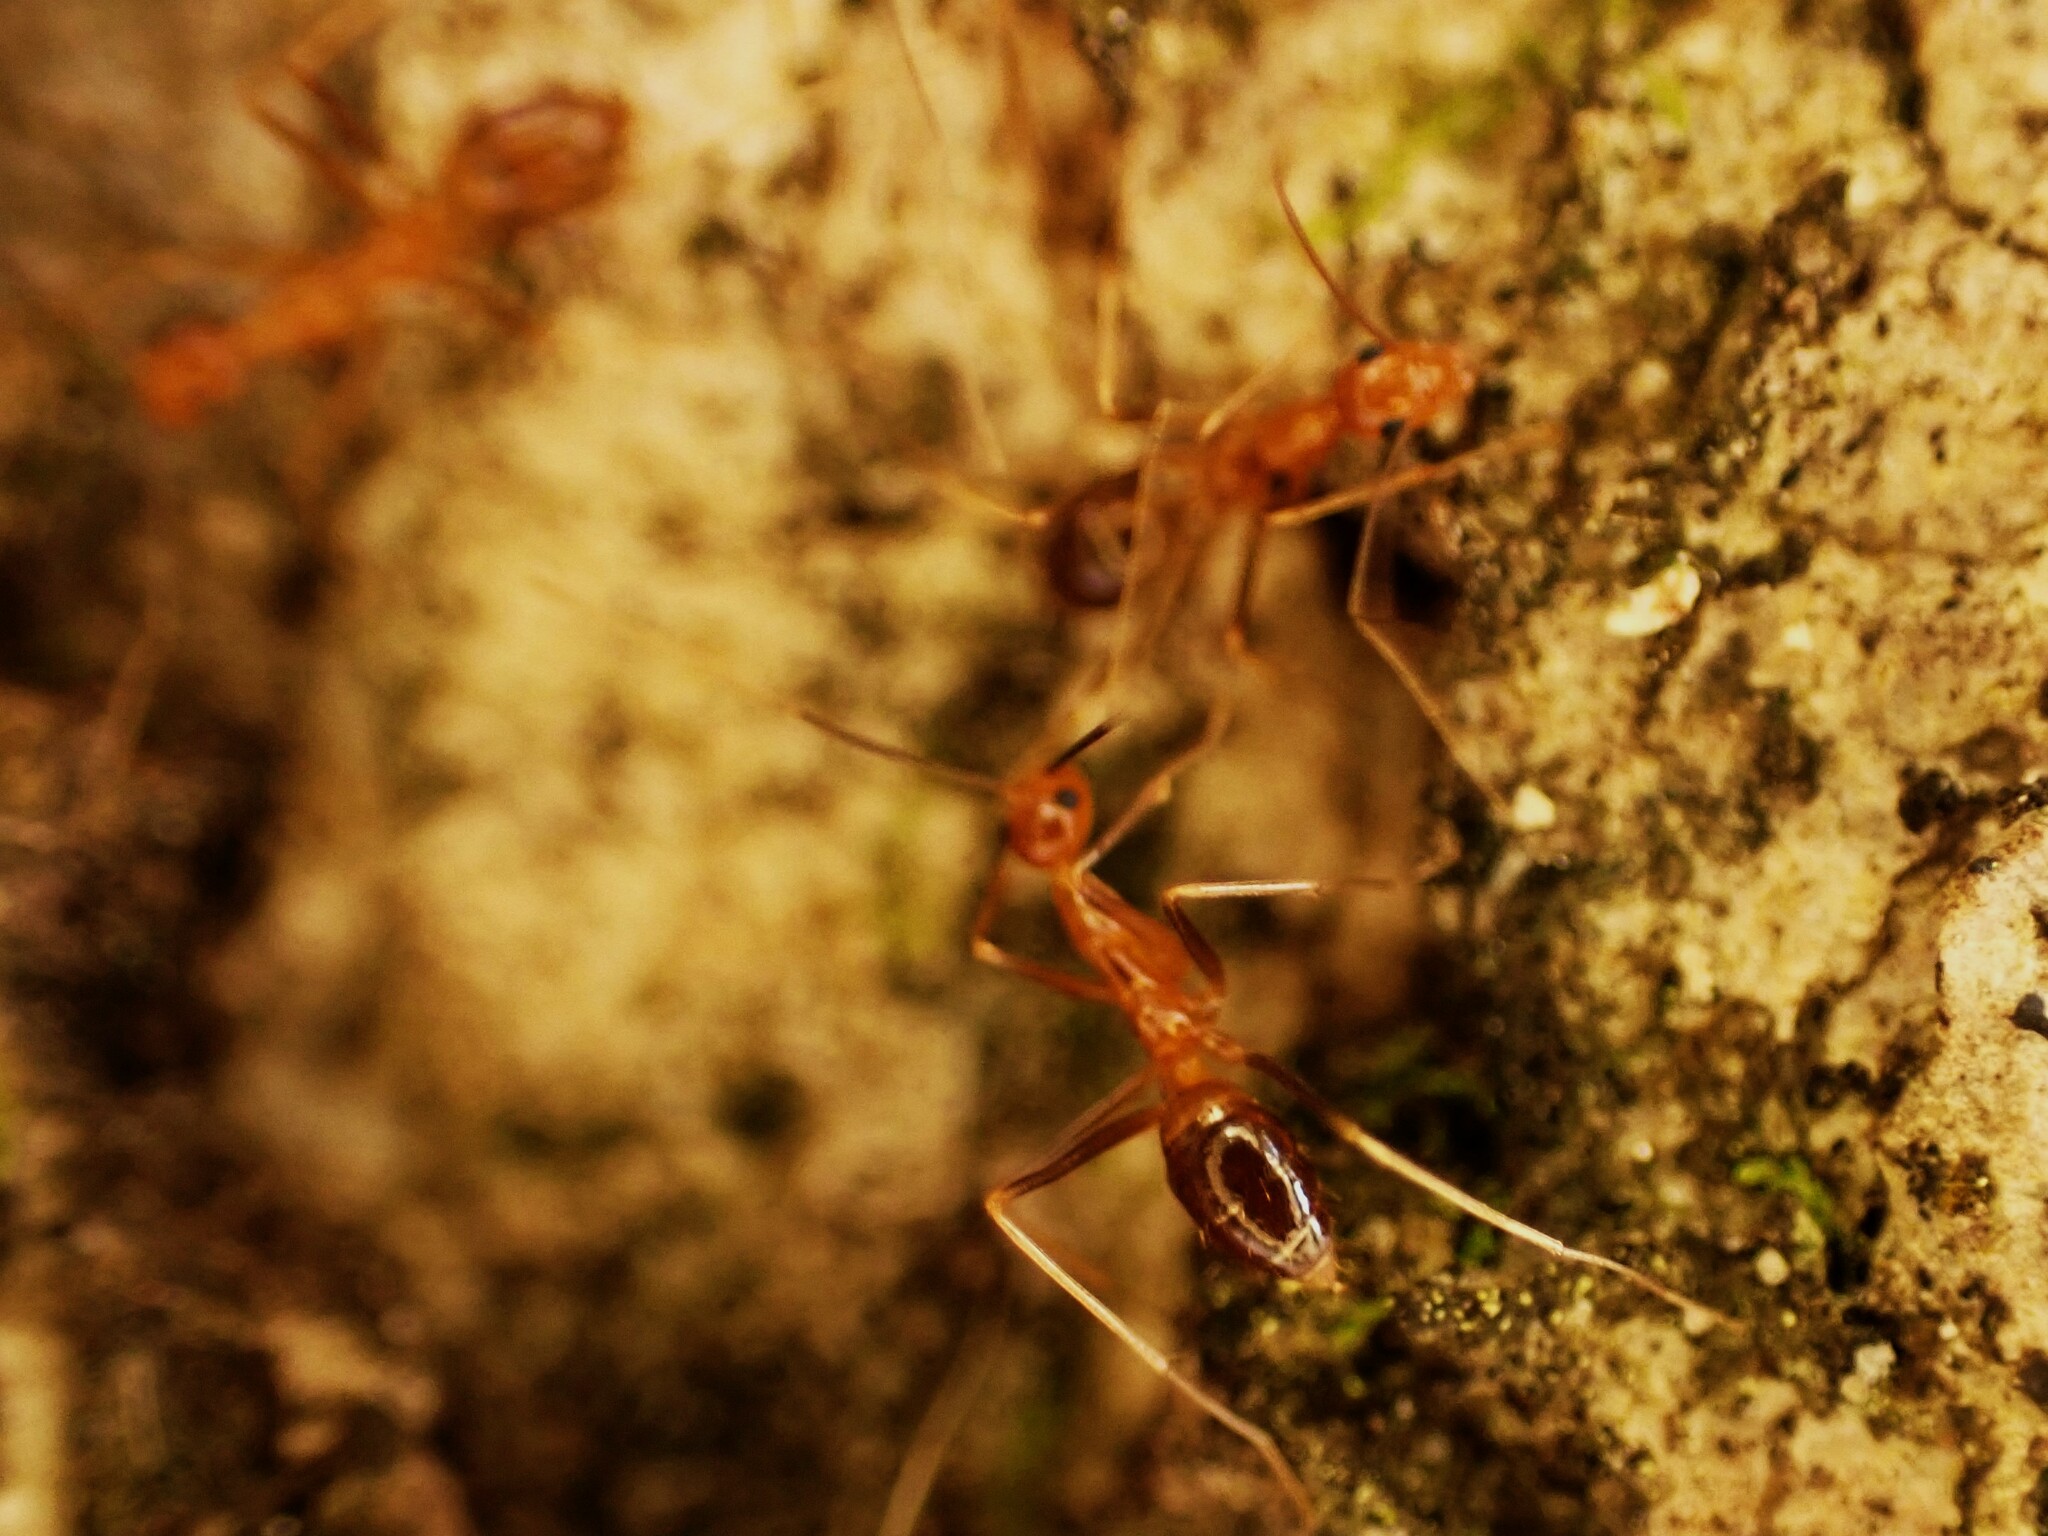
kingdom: Animalia
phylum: Arthropoda
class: Insecta
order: Hymenoptera
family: Formicidae
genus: Anoplolepis
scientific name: Anoplolepis gracilipes
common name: Ant
